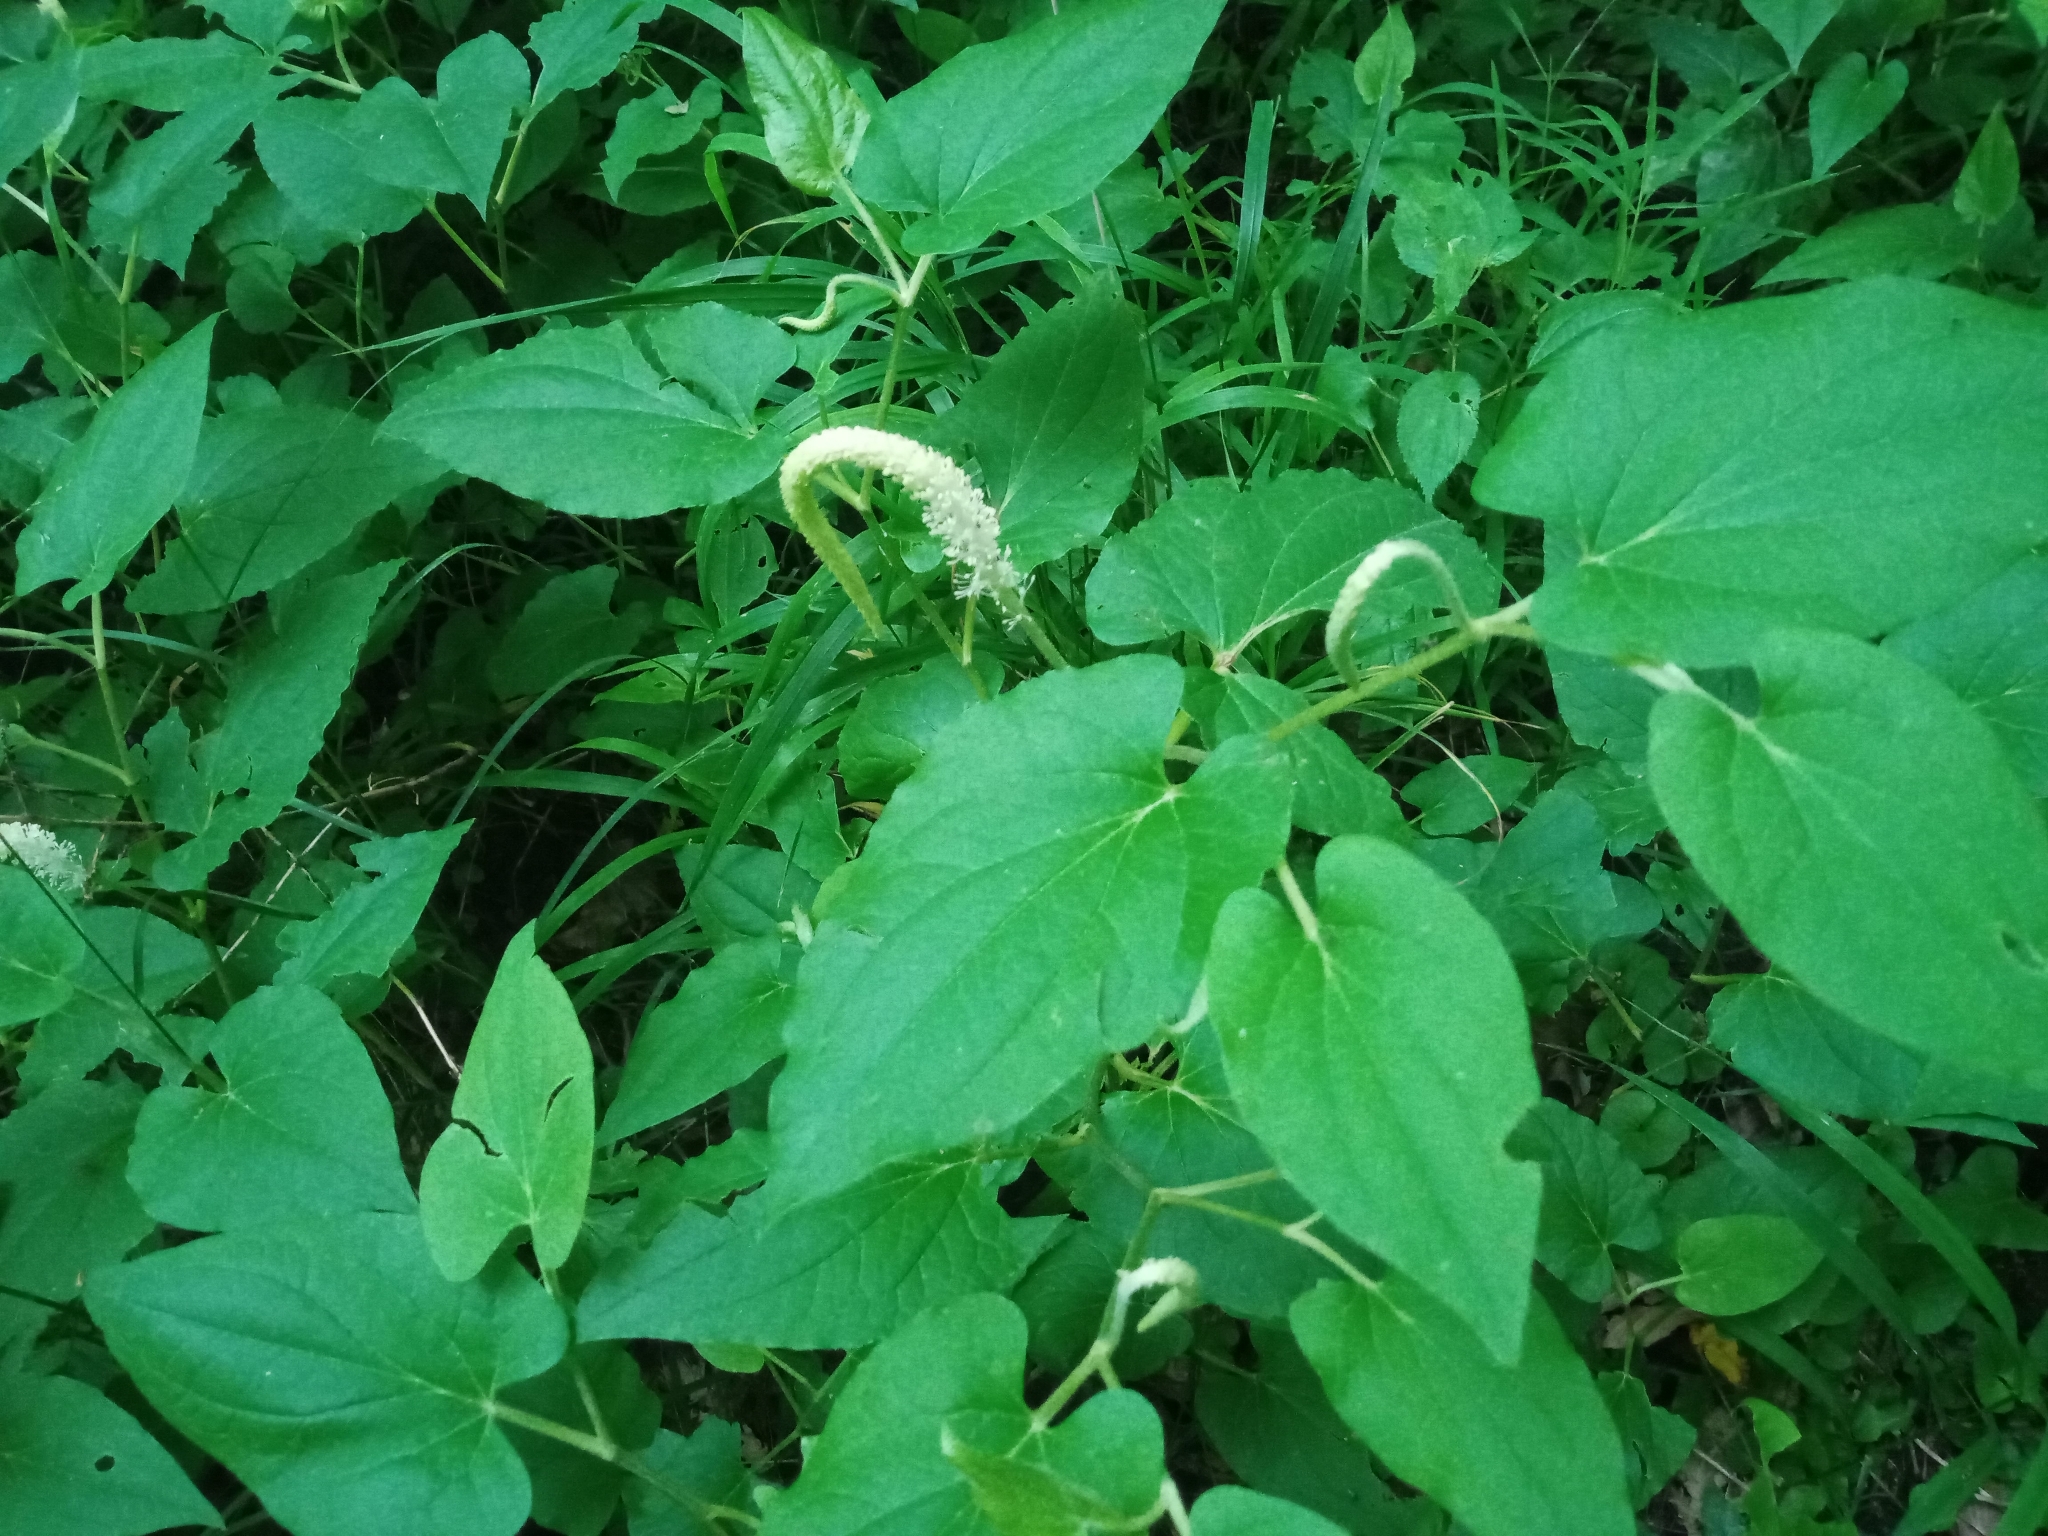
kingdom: Plantae
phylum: Tracheophyta
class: Magnoliopsida
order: Piperales
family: Saururaceae
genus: Saururus
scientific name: Saururus cernuus
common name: Lizard's-tail
